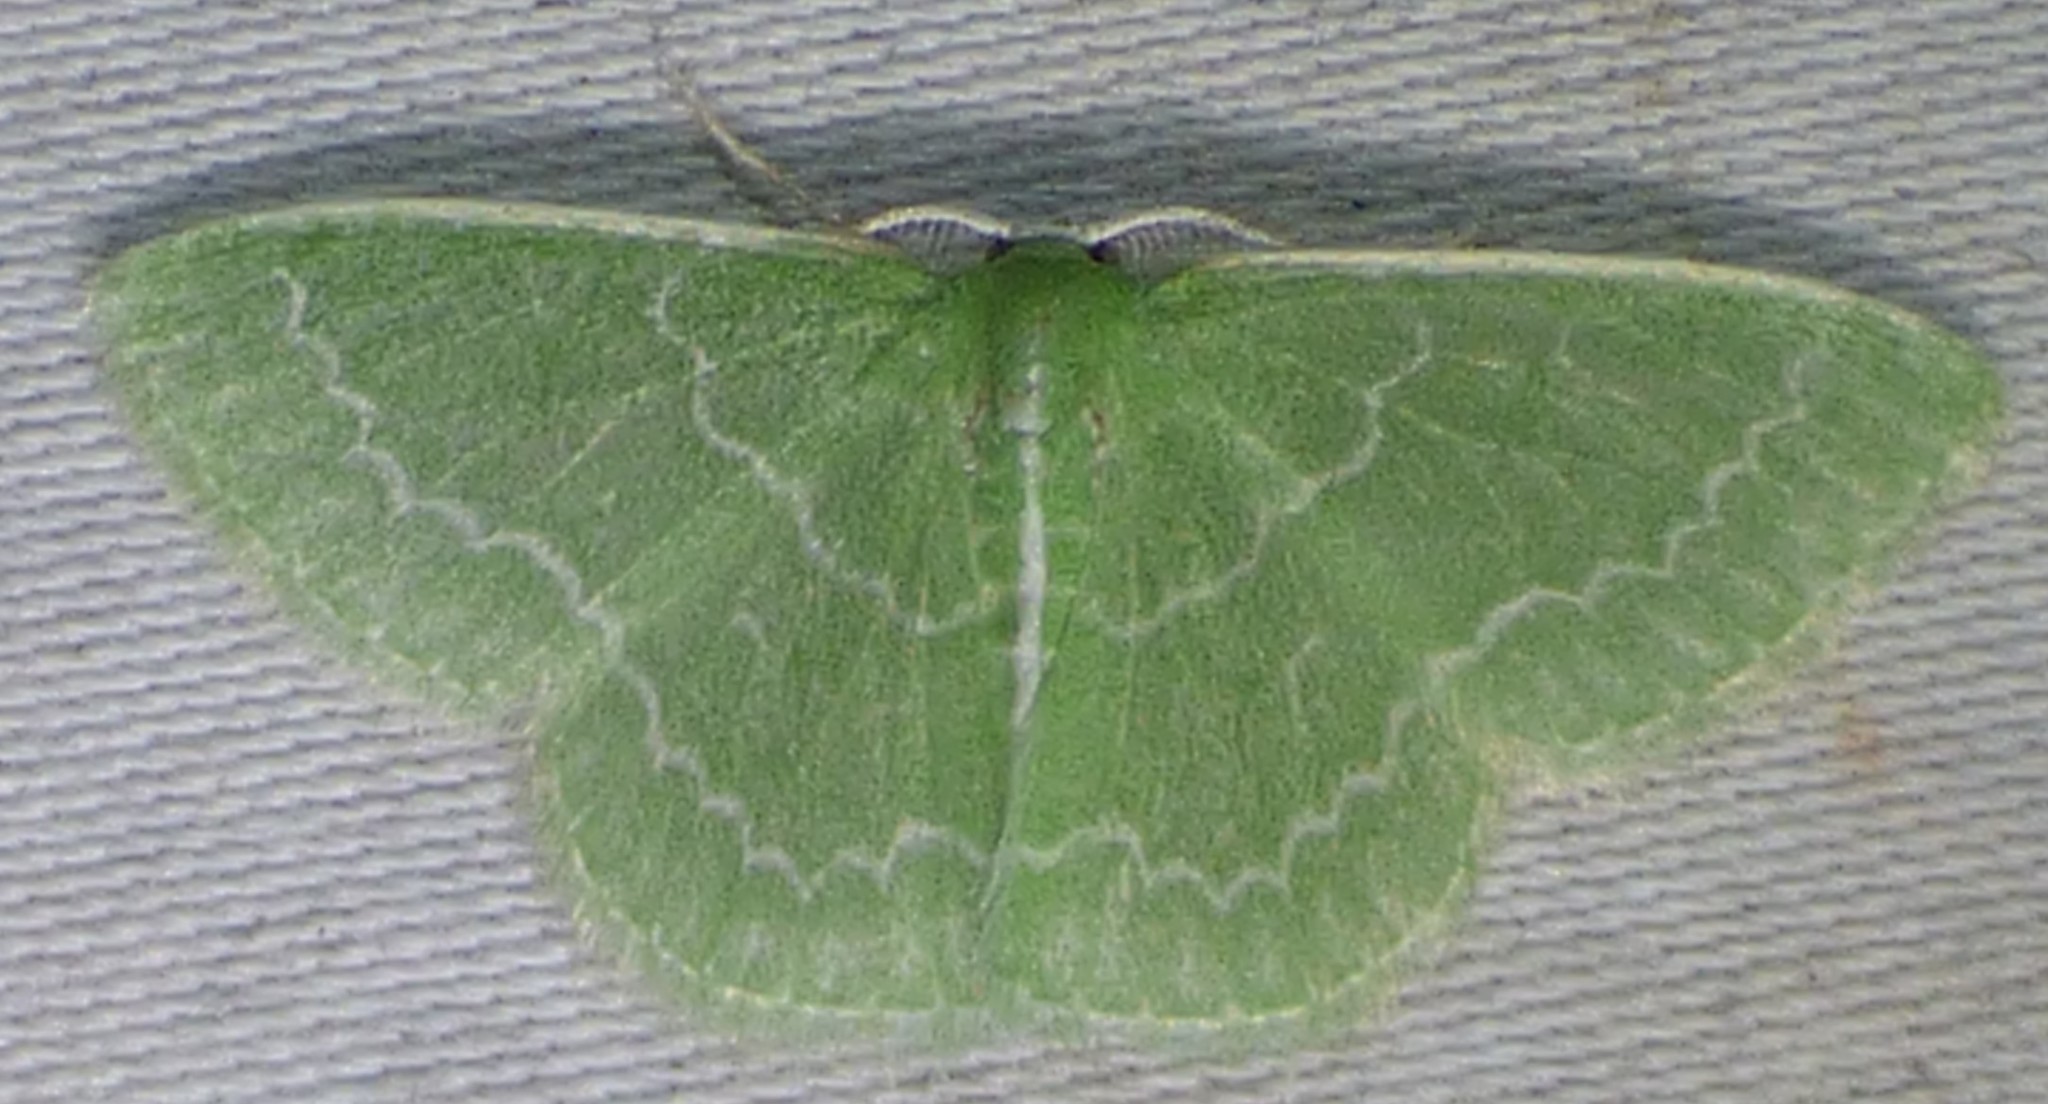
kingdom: Animalia
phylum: Arthropoda
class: Insecta
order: Lepidoptera
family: Geometridae
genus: Synchlora
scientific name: Synchlora frondaria
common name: Southern emerald
